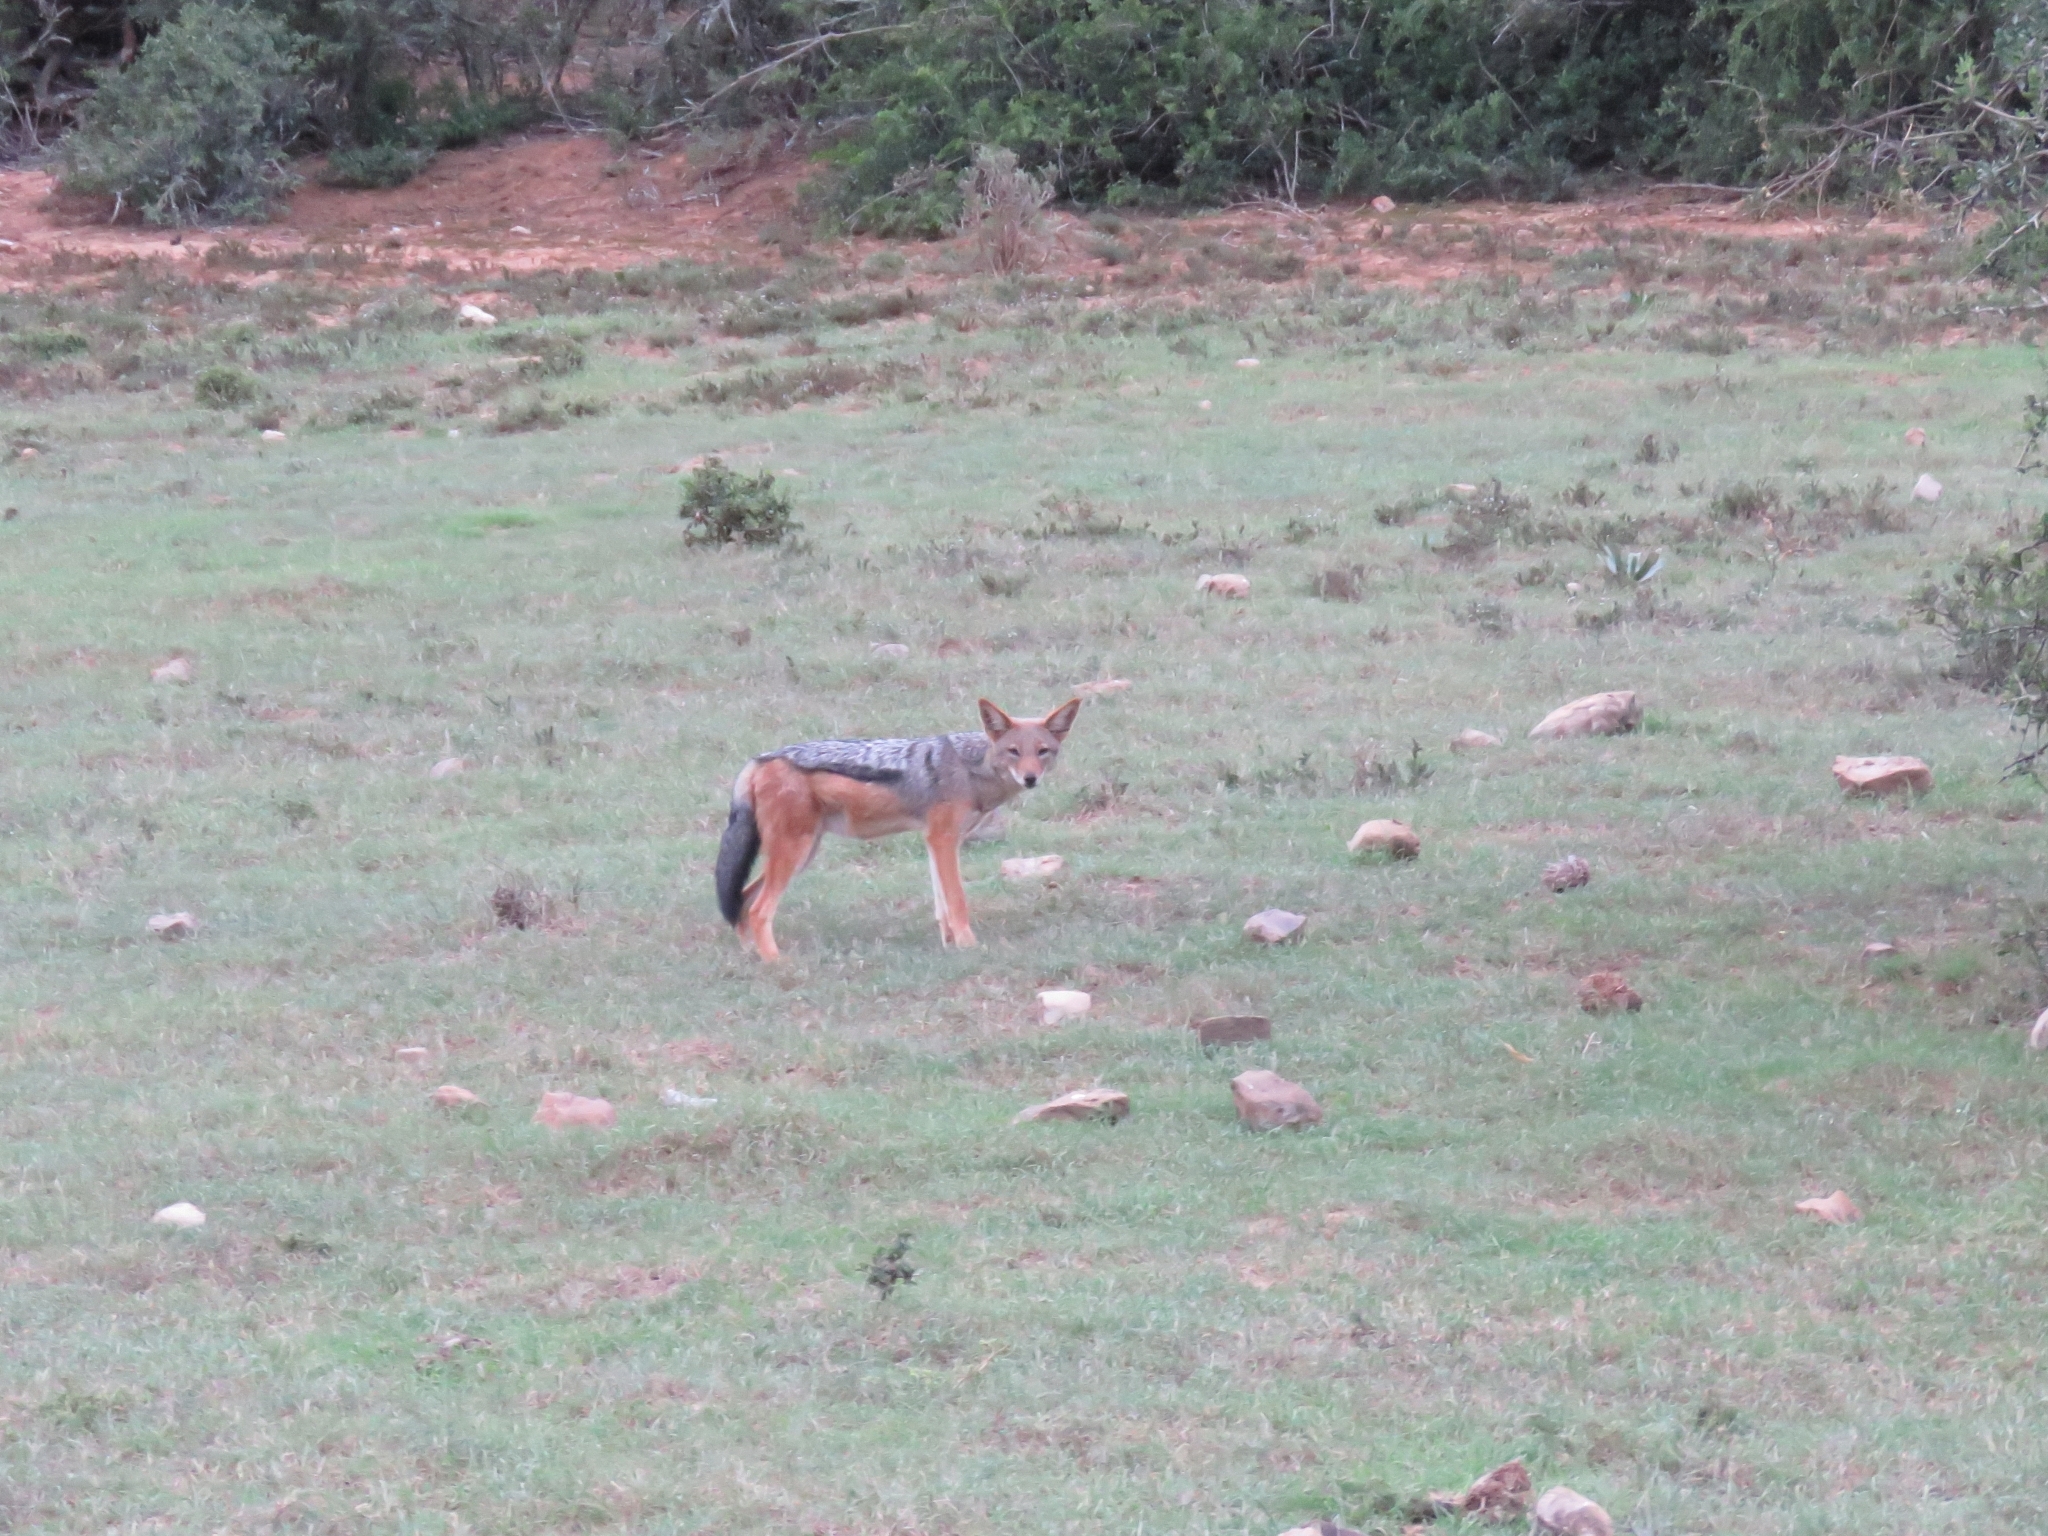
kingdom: Animalia
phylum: Chordata
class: Mammalia
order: Carnivora
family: Canidae
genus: Lupulella
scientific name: Lupulella
